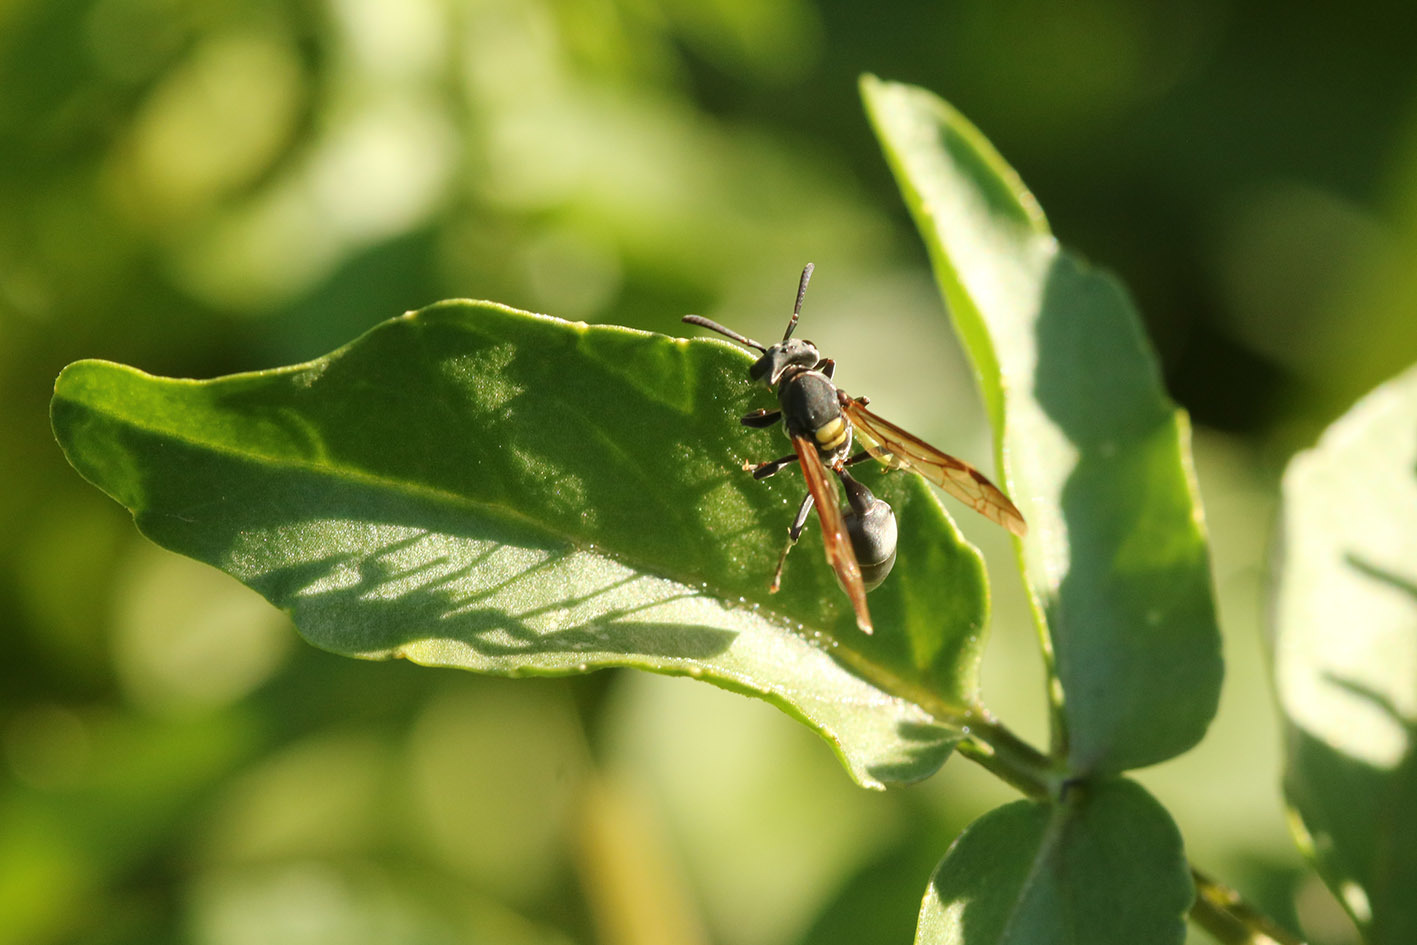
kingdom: Animalia
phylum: Arthropoda
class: Insecta
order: Hymenoptera
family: Eumenidae
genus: Polybia
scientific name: Polybia scutellaris
